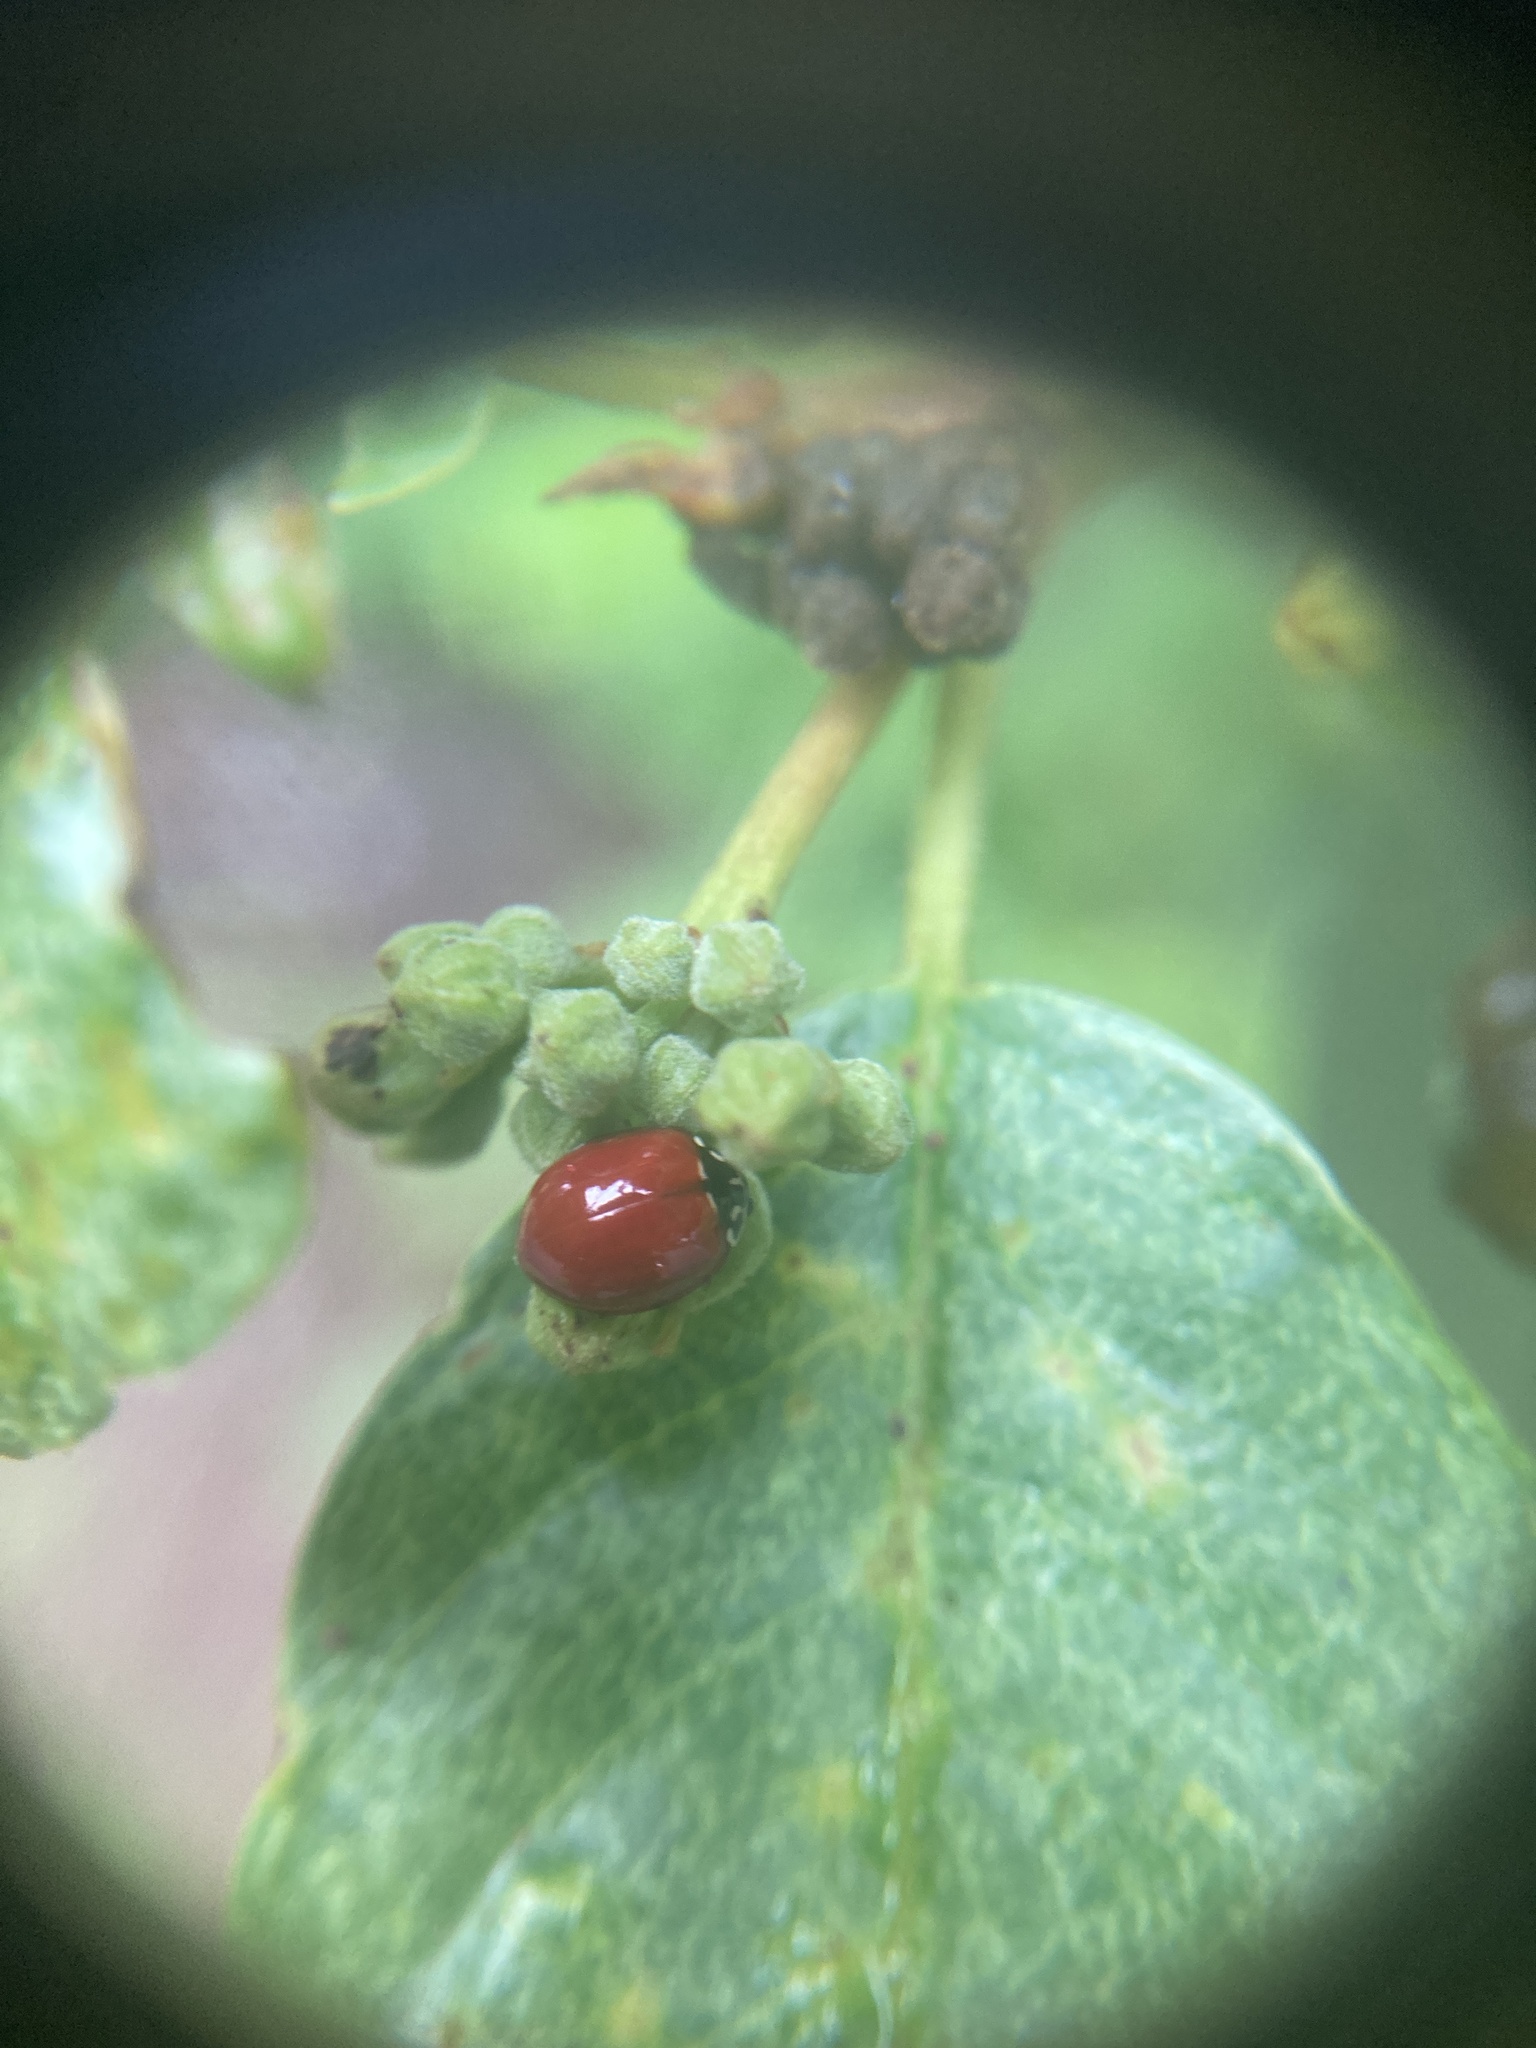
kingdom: Animalia
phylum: Arthropoda
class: Insecta
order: Coleoptera
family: Coccinellidae
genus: Cycloneda
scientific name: Cycloneda polita
